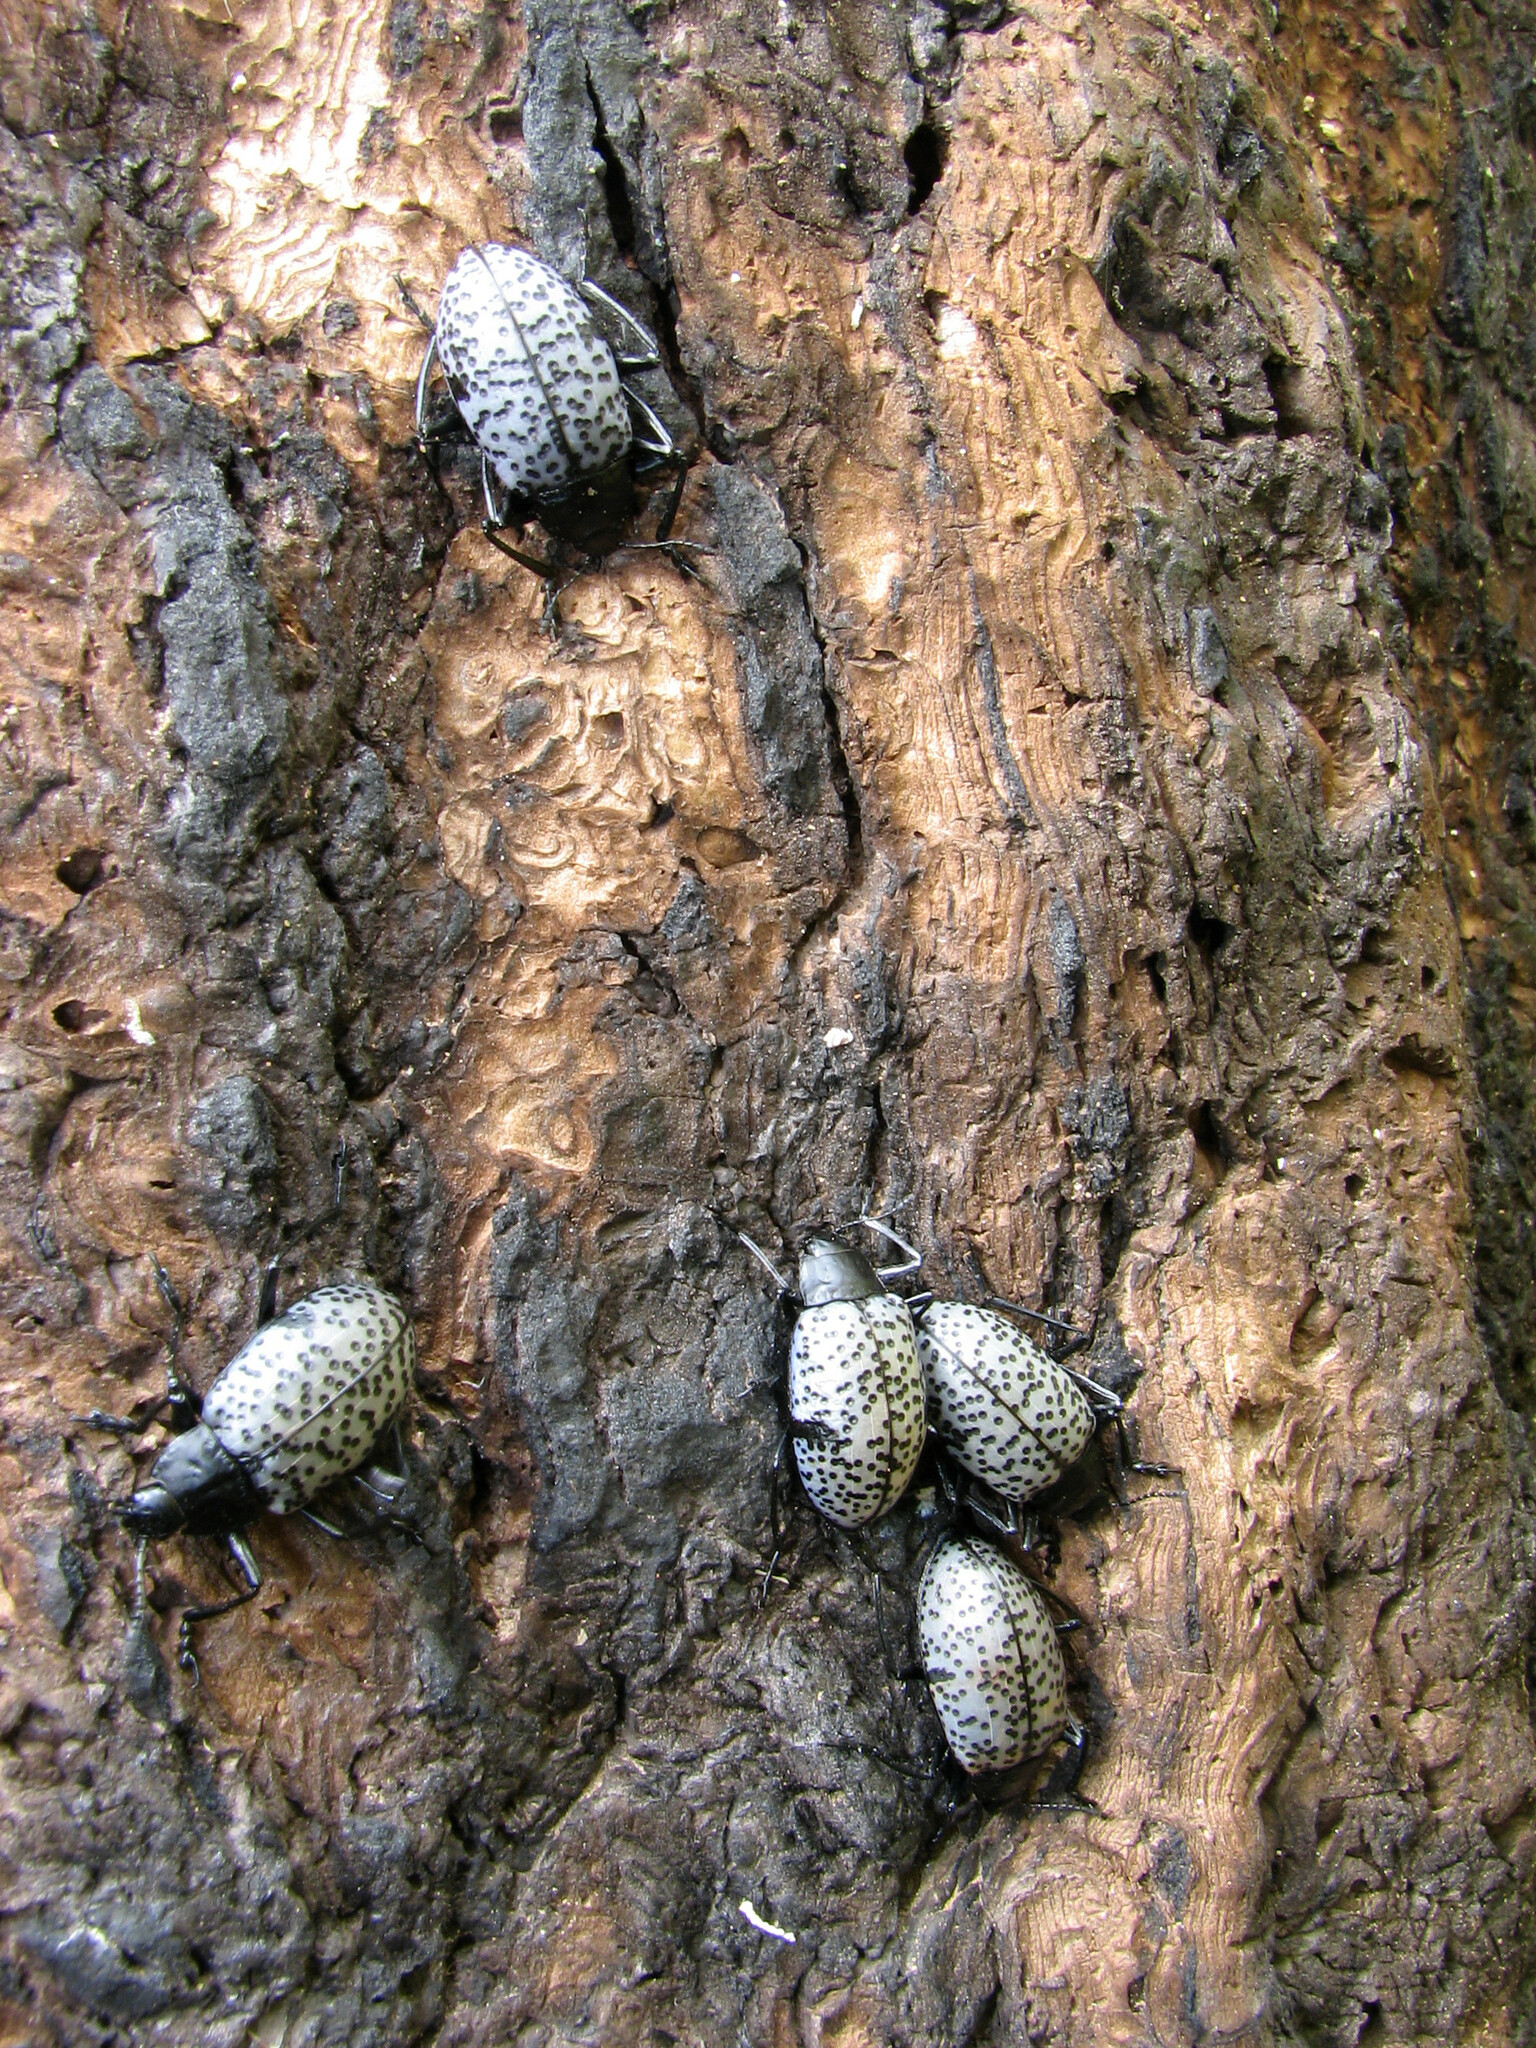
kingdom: Animalia
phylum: Arthropoda
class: Insecta
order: Coleoptera
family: Erotylidae
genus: Gibbifer
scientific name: Gibbifer californicus
